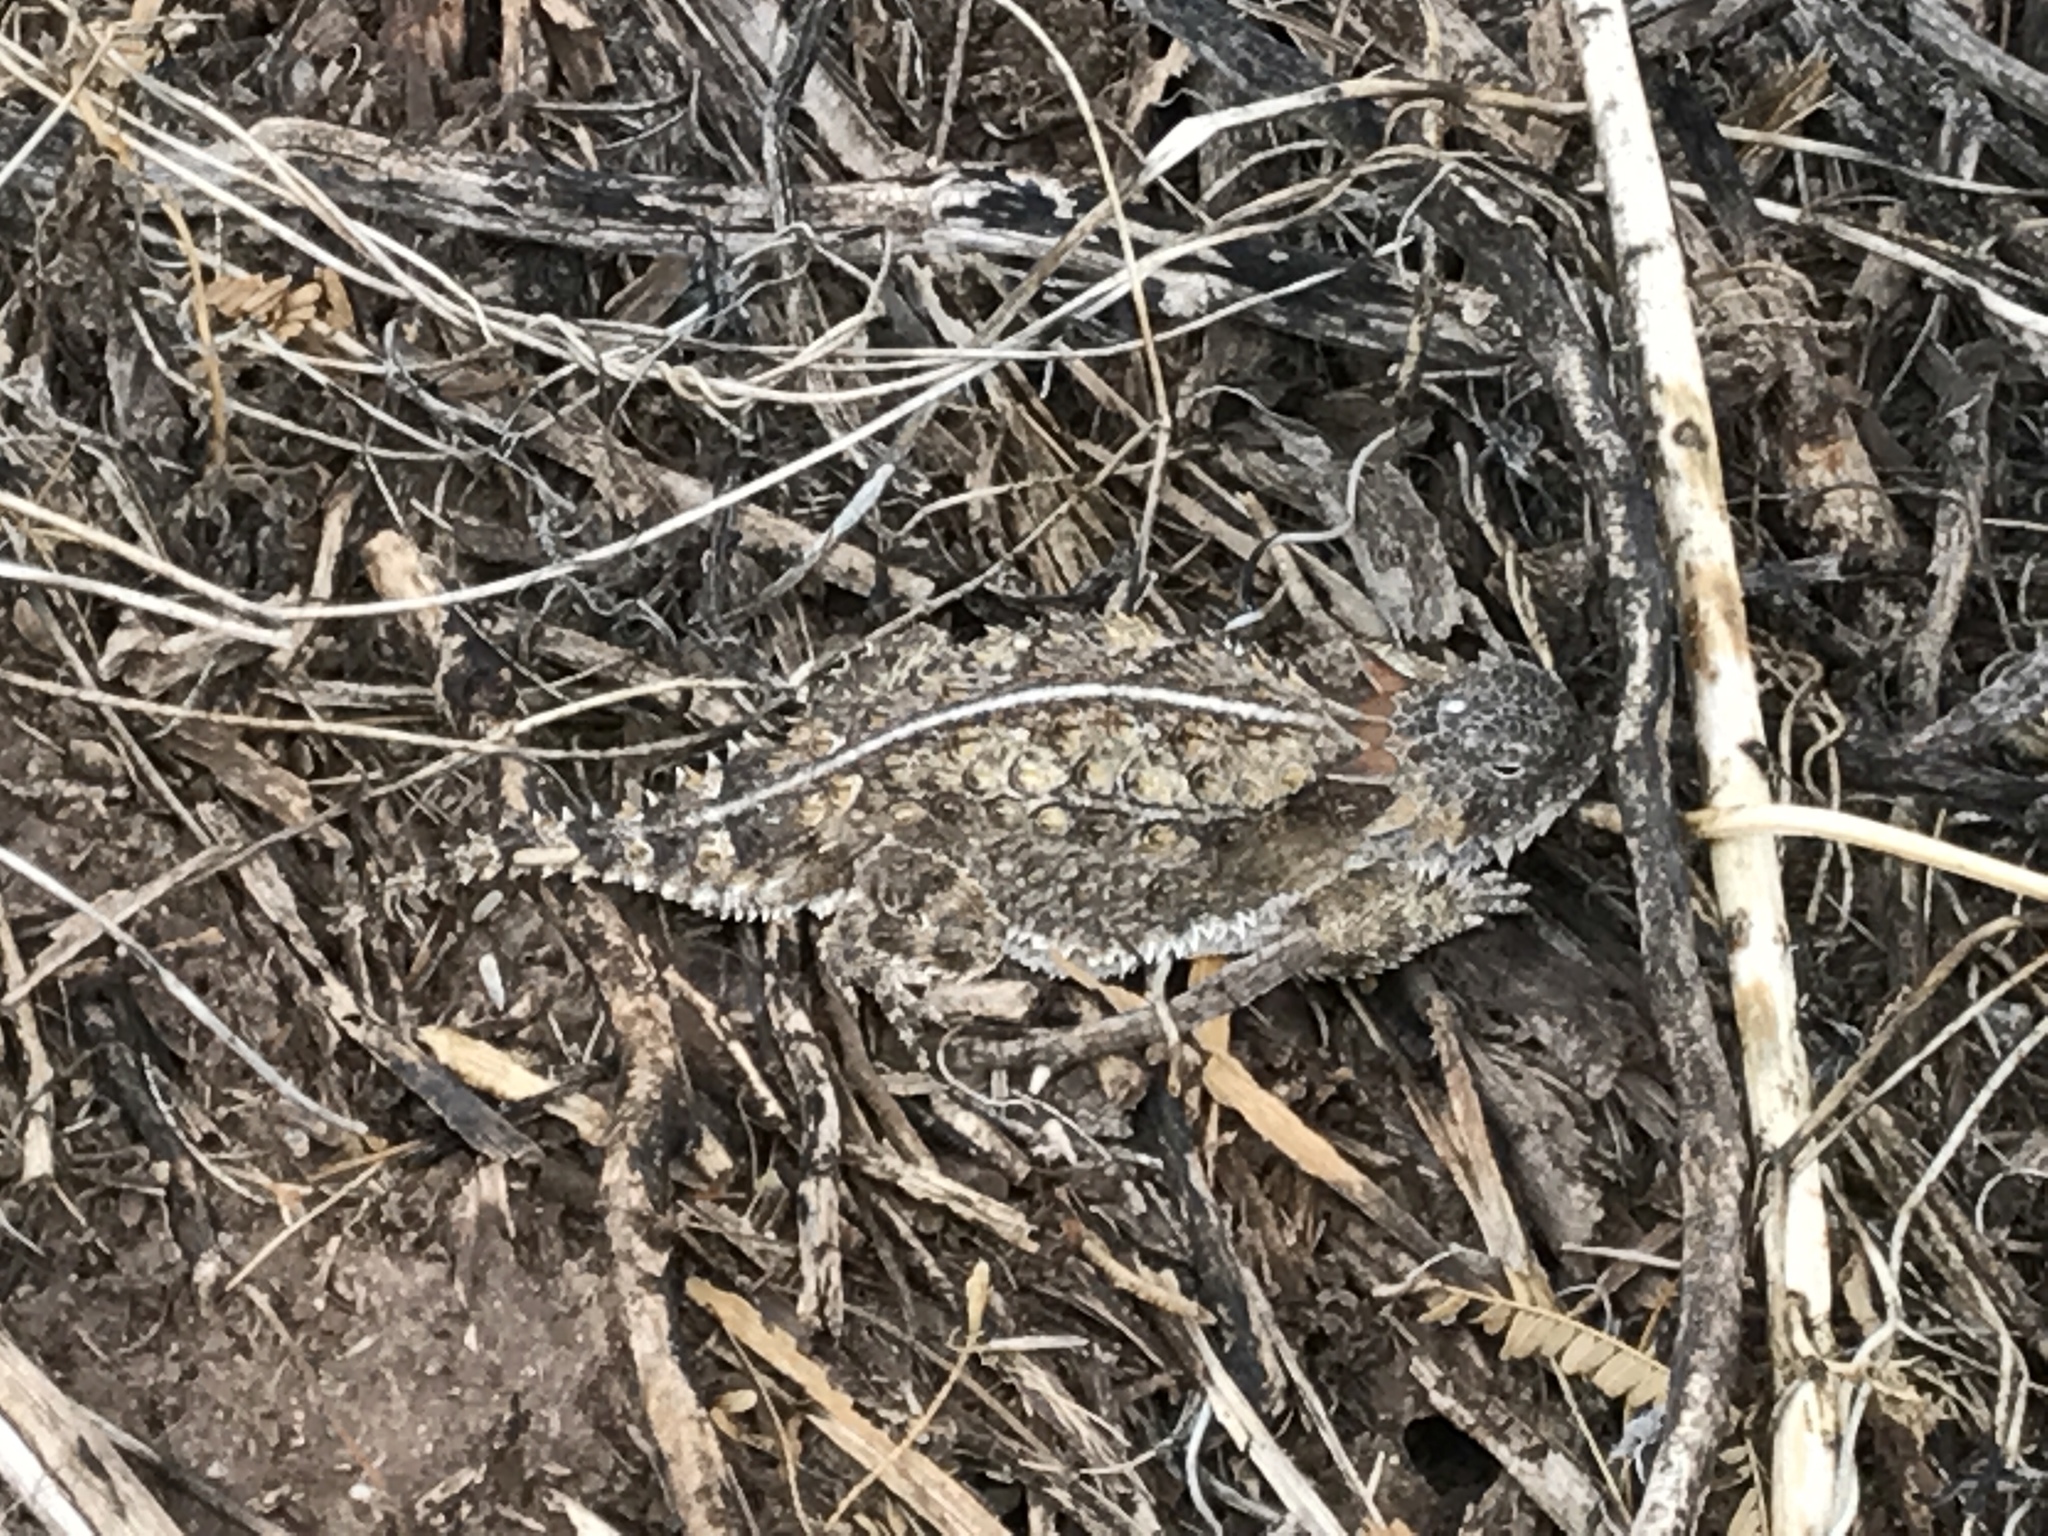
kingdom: Animalia
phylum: Chordata
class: Squamata
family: Phrynosomatidae
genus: Phrynosoma
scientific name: Phrynosoma solare
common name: Regal horned lizard
